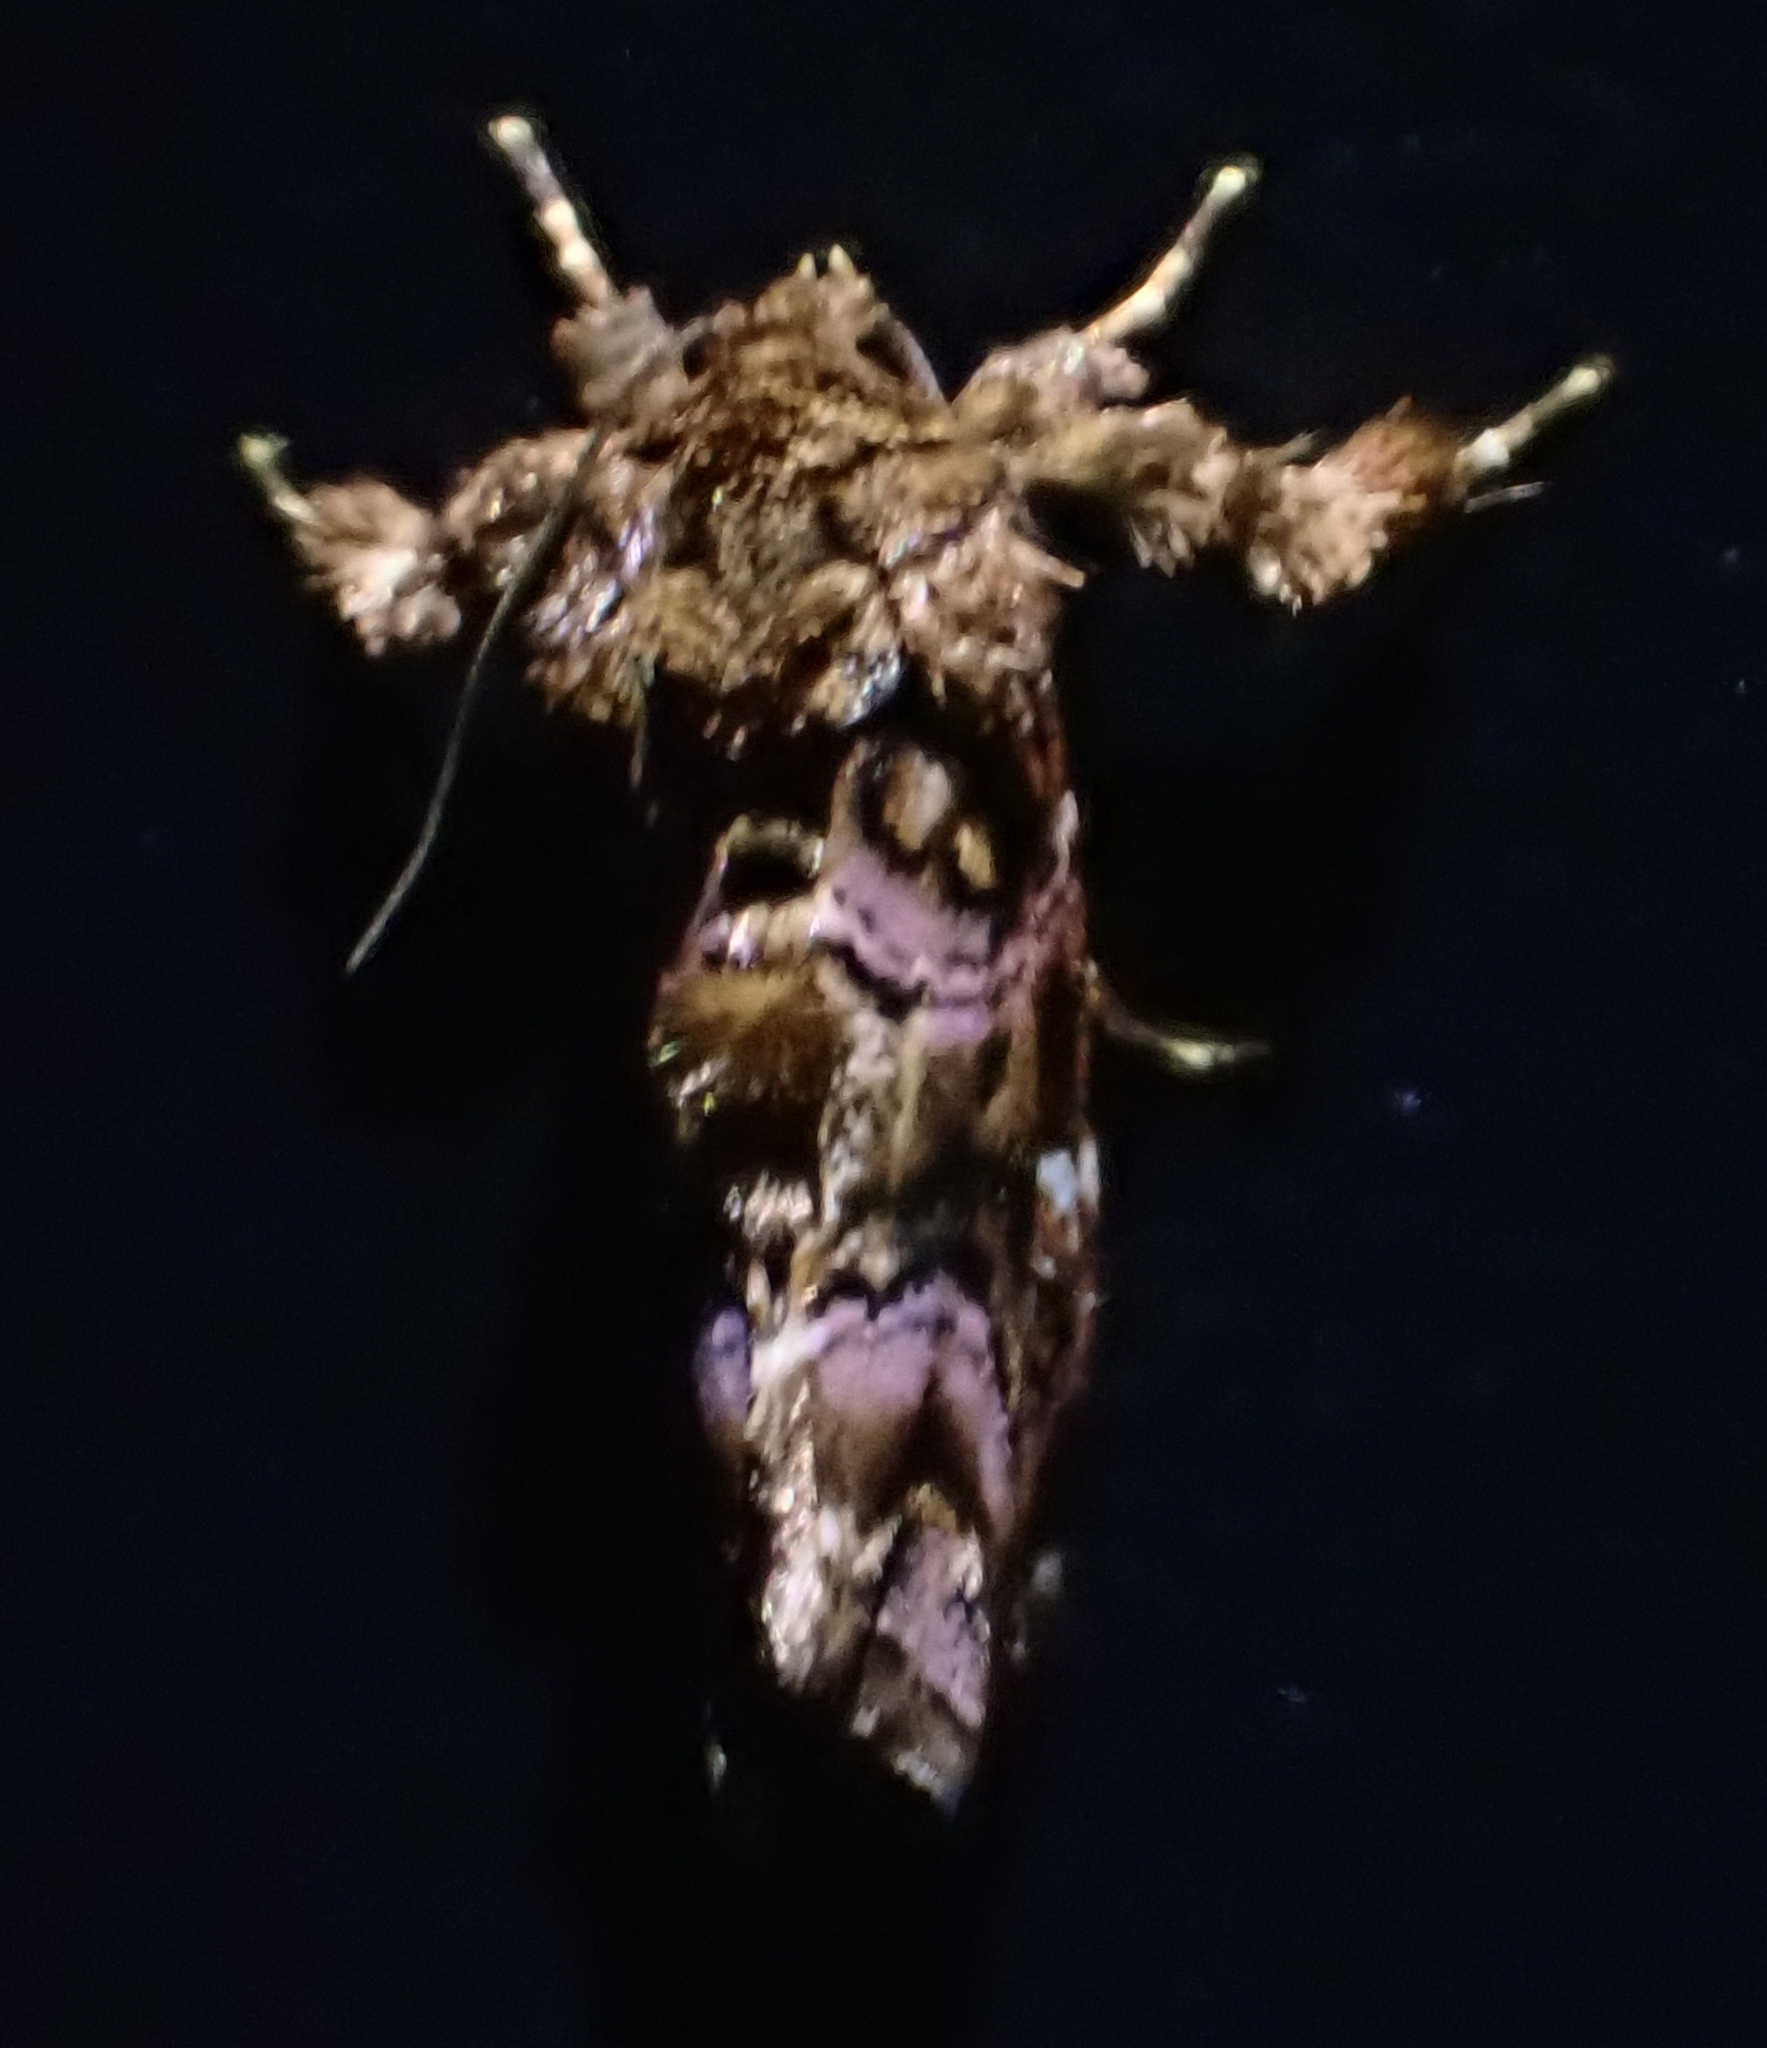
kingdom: Animalia
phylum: Arthropoda
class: Insecta
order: Lepidoptera
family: Noctuidae
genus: Callopistria
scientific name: Callopistria mollissima
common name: Pink-shaded fern moth
